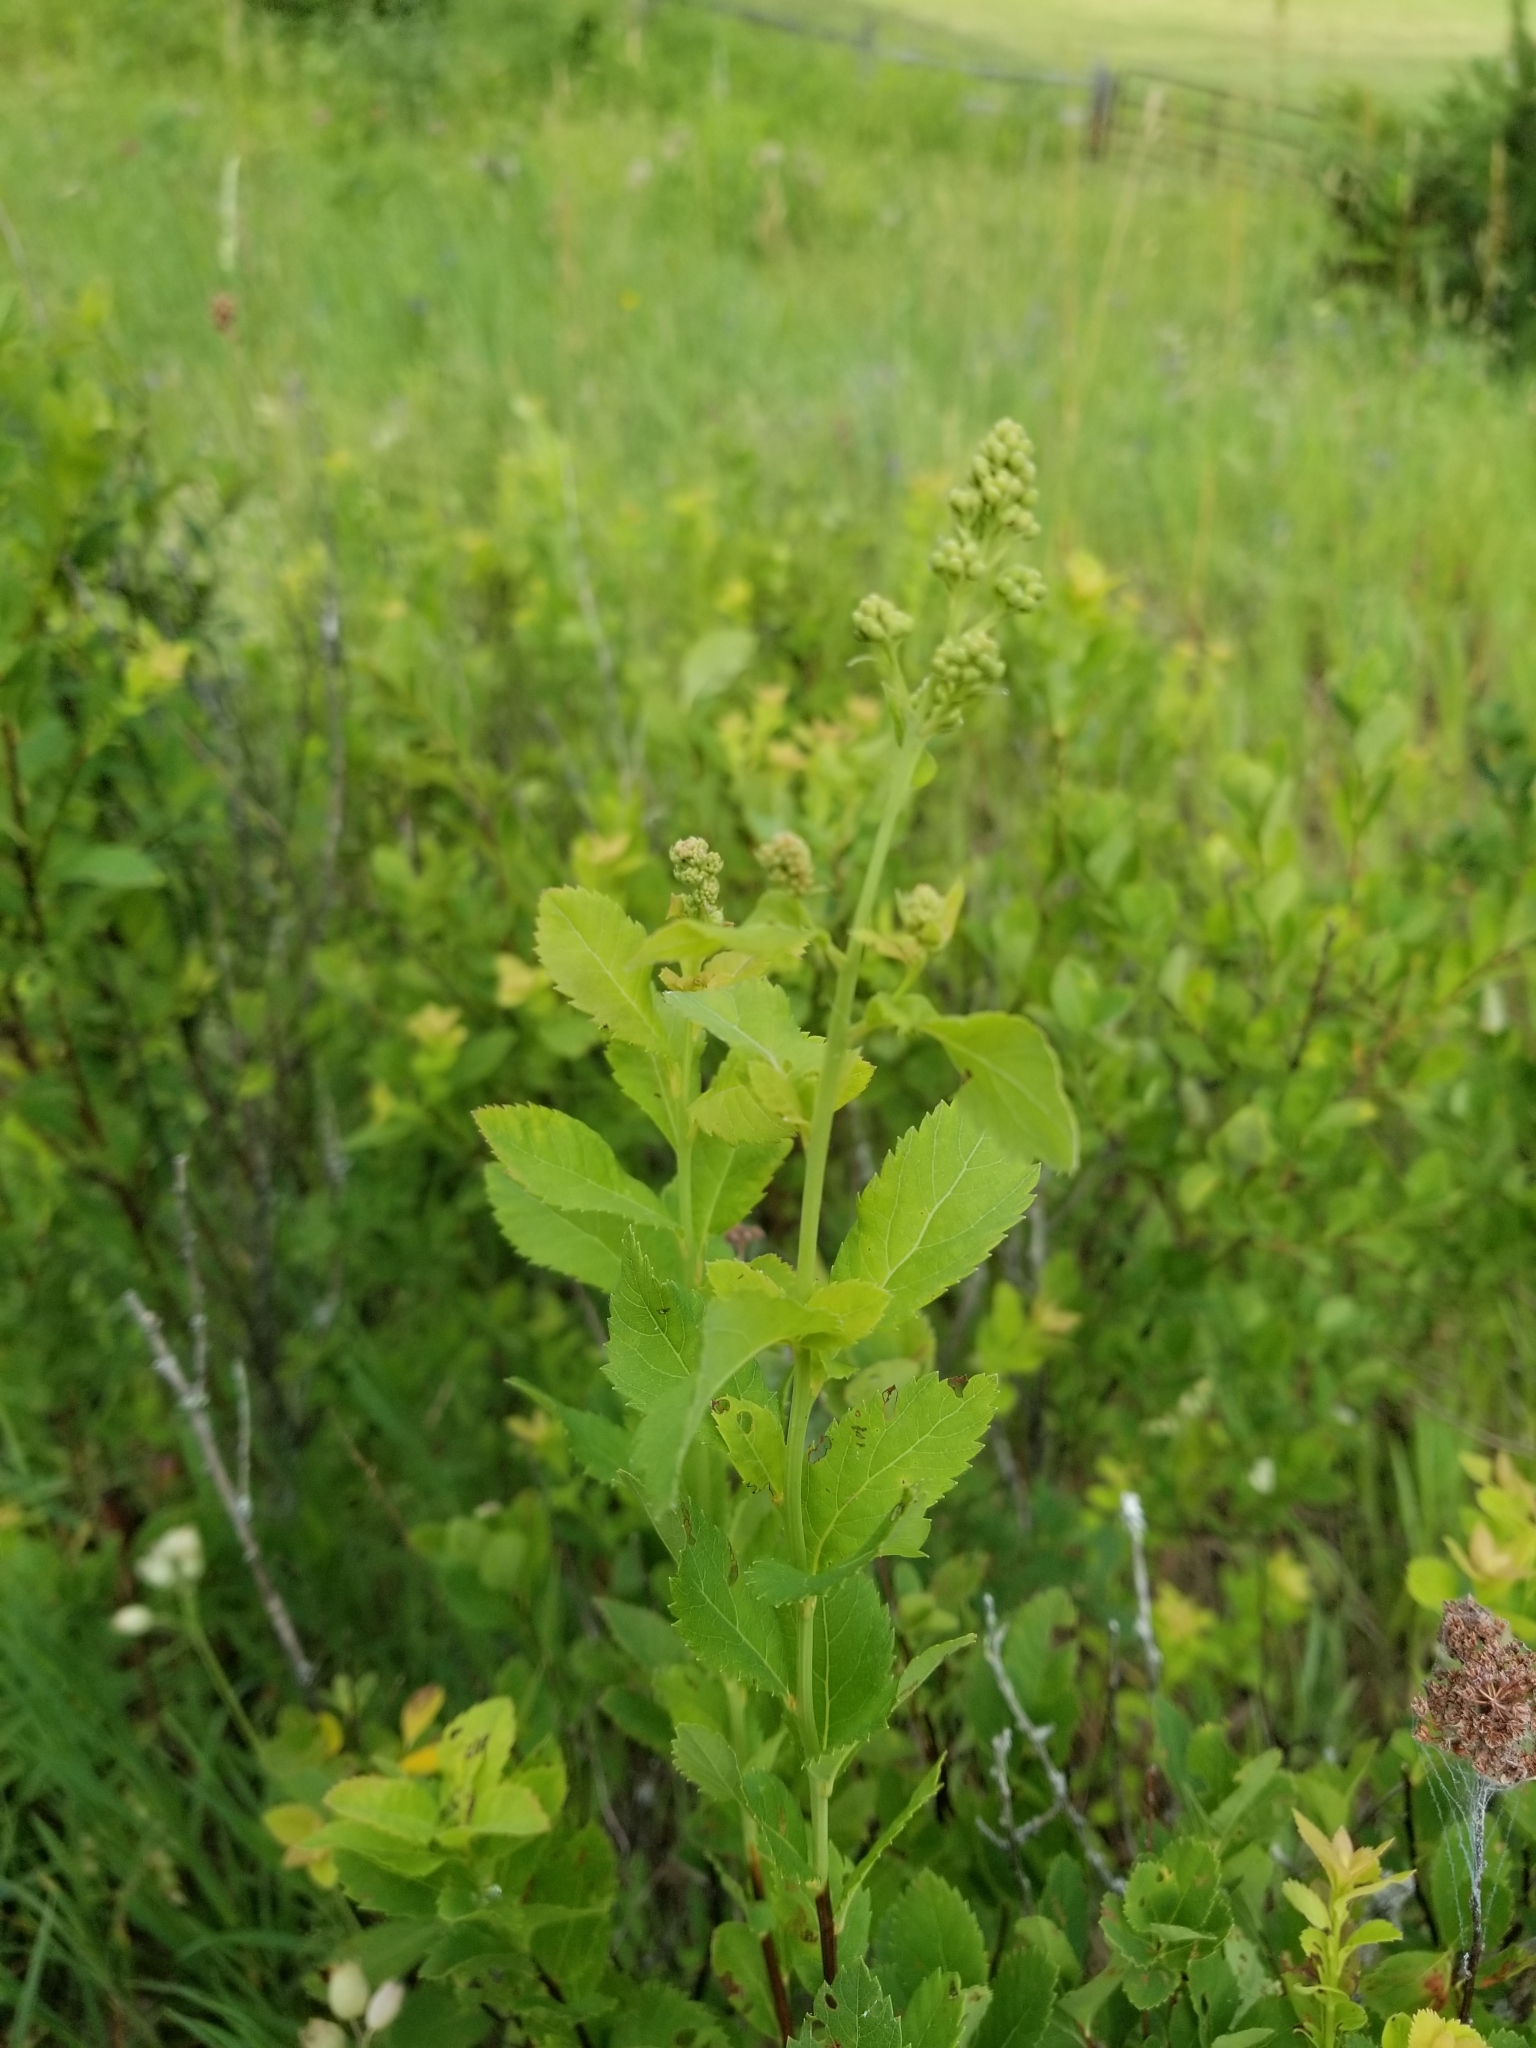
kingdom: Plantae
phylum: Tracheophyta
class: Magnoliopsida
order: Rosales
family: Rosaceae
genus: Spiraea
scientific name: Spiraea alba
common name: Pale bridewort
